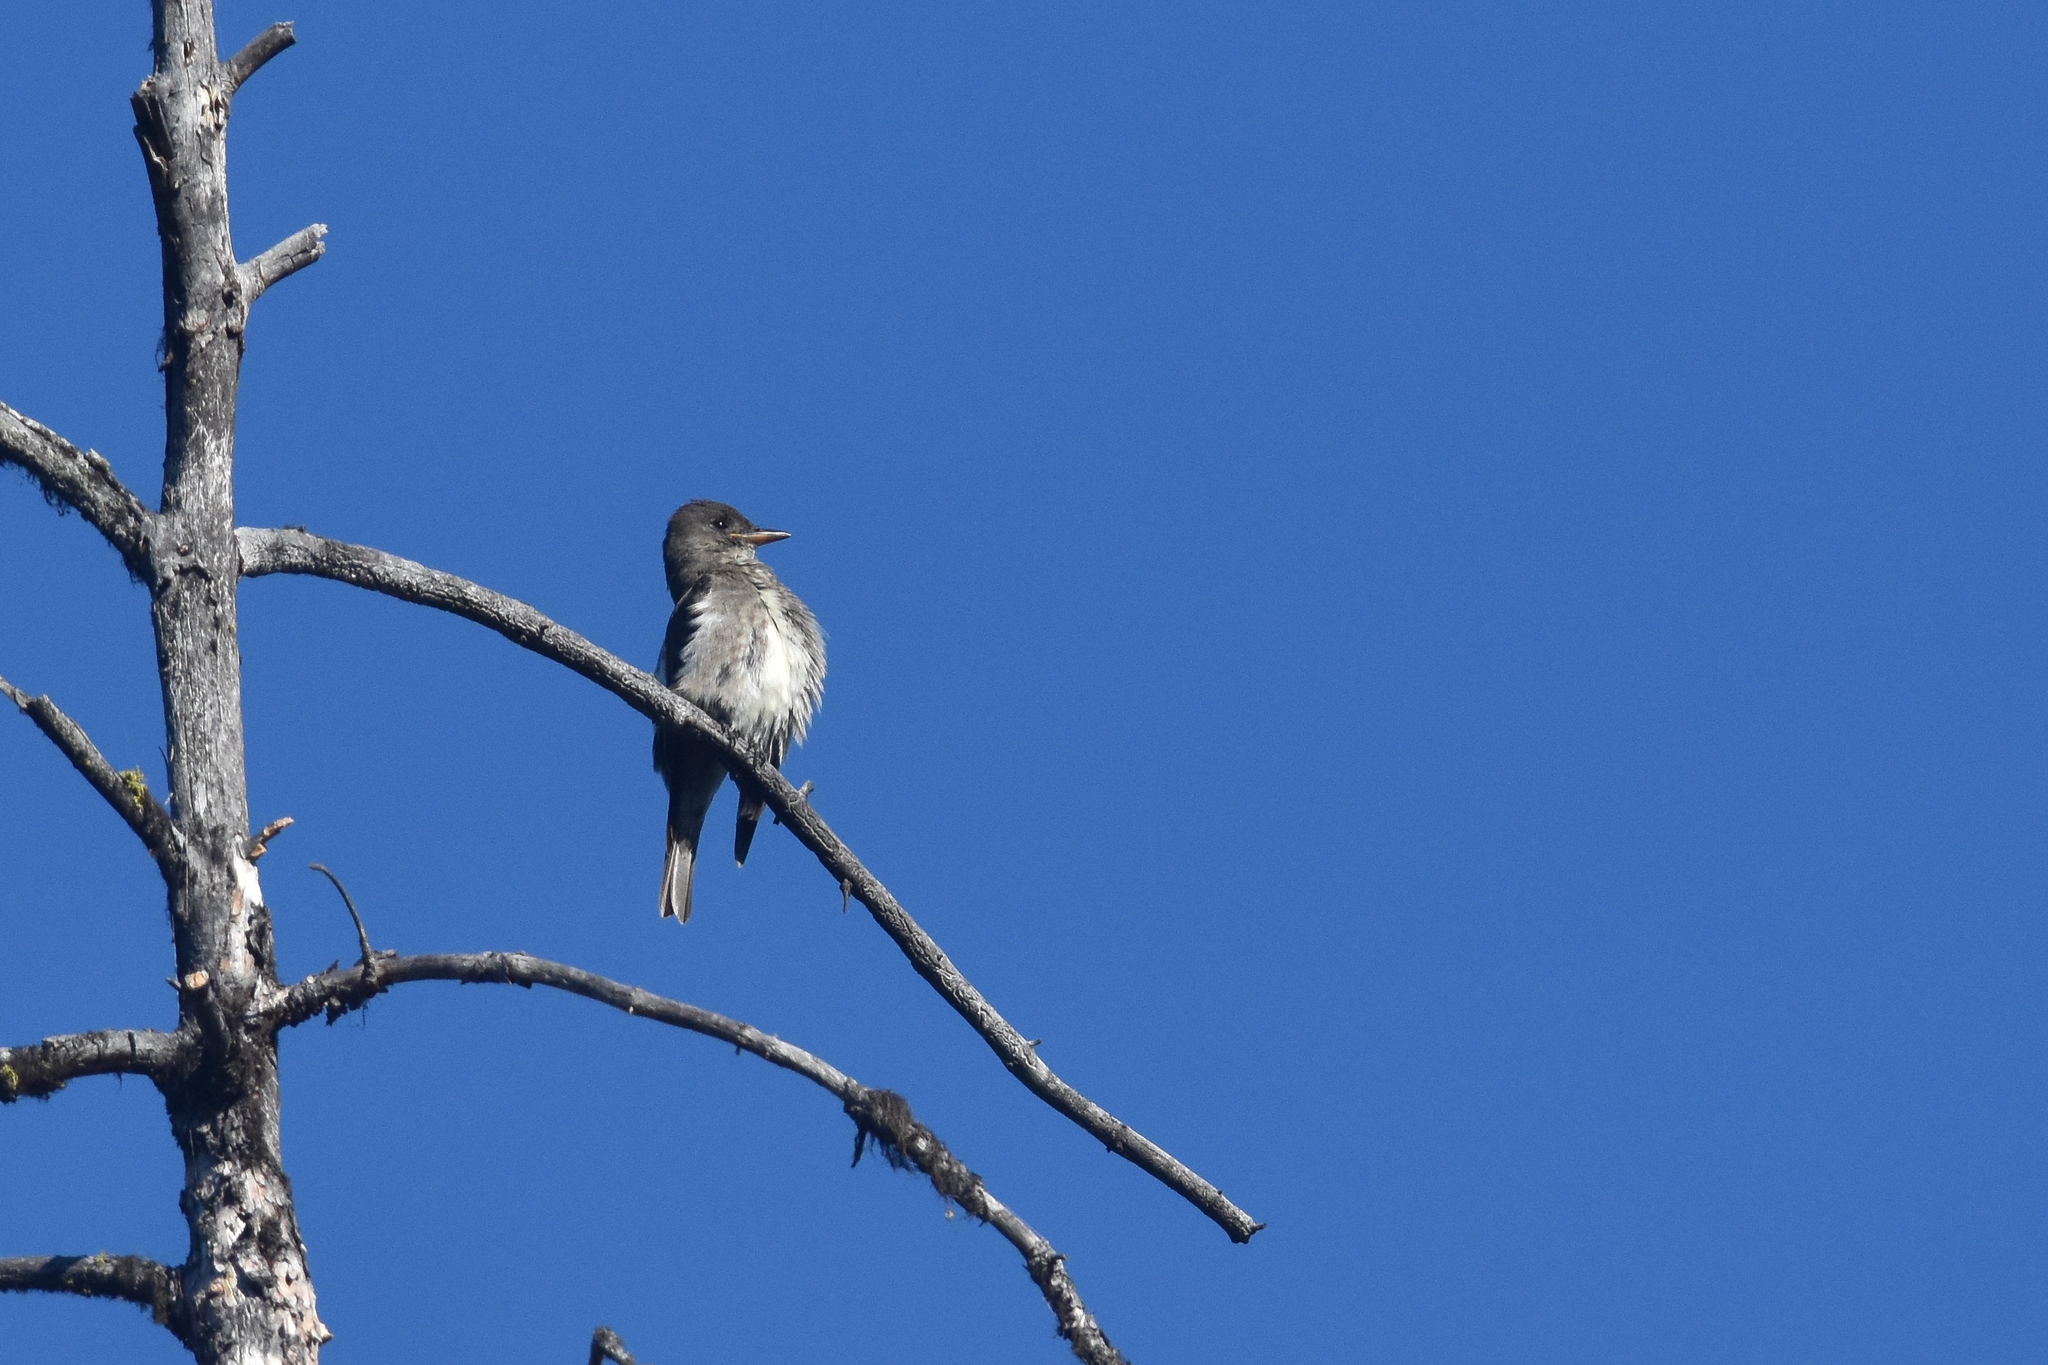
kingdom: Animalia
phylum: Chordata
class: Aves
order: Passeriformes
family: Tyrannidae
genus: Contopus
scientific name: Contopus cooperi
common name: Olive-sided flycatcher
